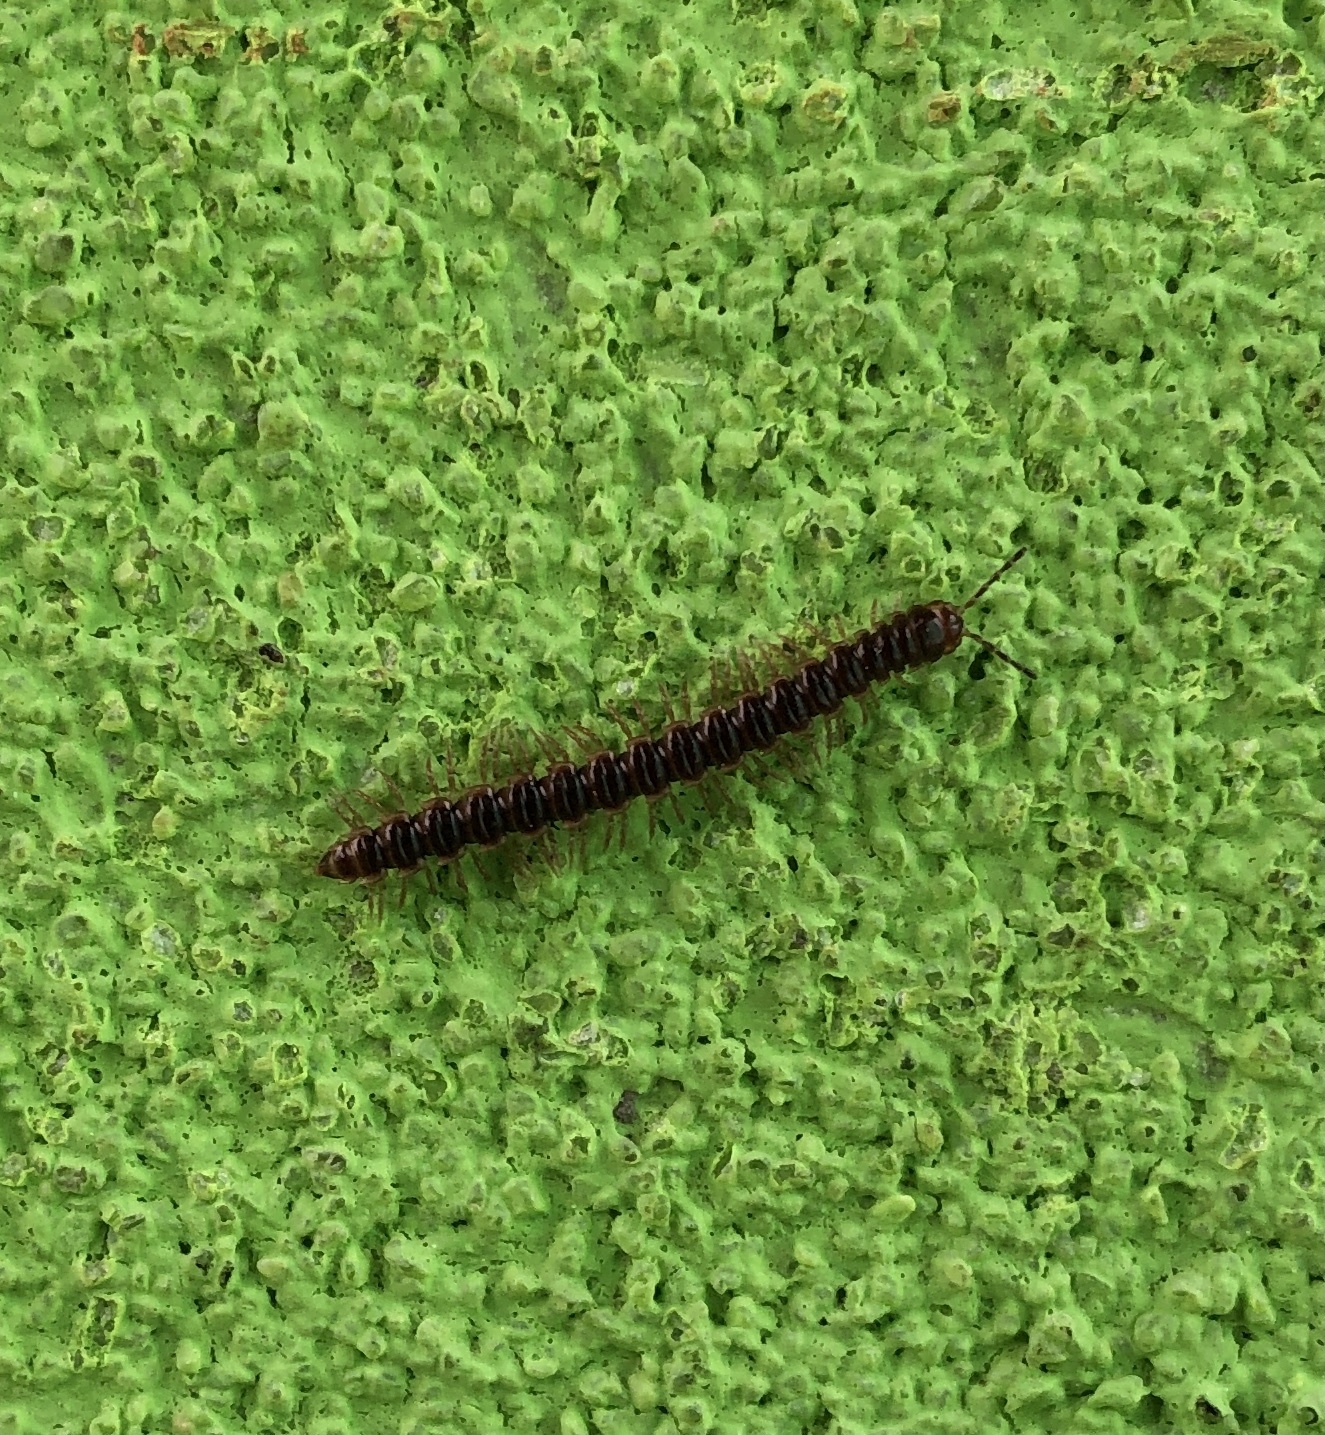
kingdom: Animalia
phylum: Arthropoda
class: Diplopoda
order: Polydesmida
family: Paradoxosomatidae
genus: Oxidus
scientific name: Oxidus gracilis
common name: Greenhouse millipede
